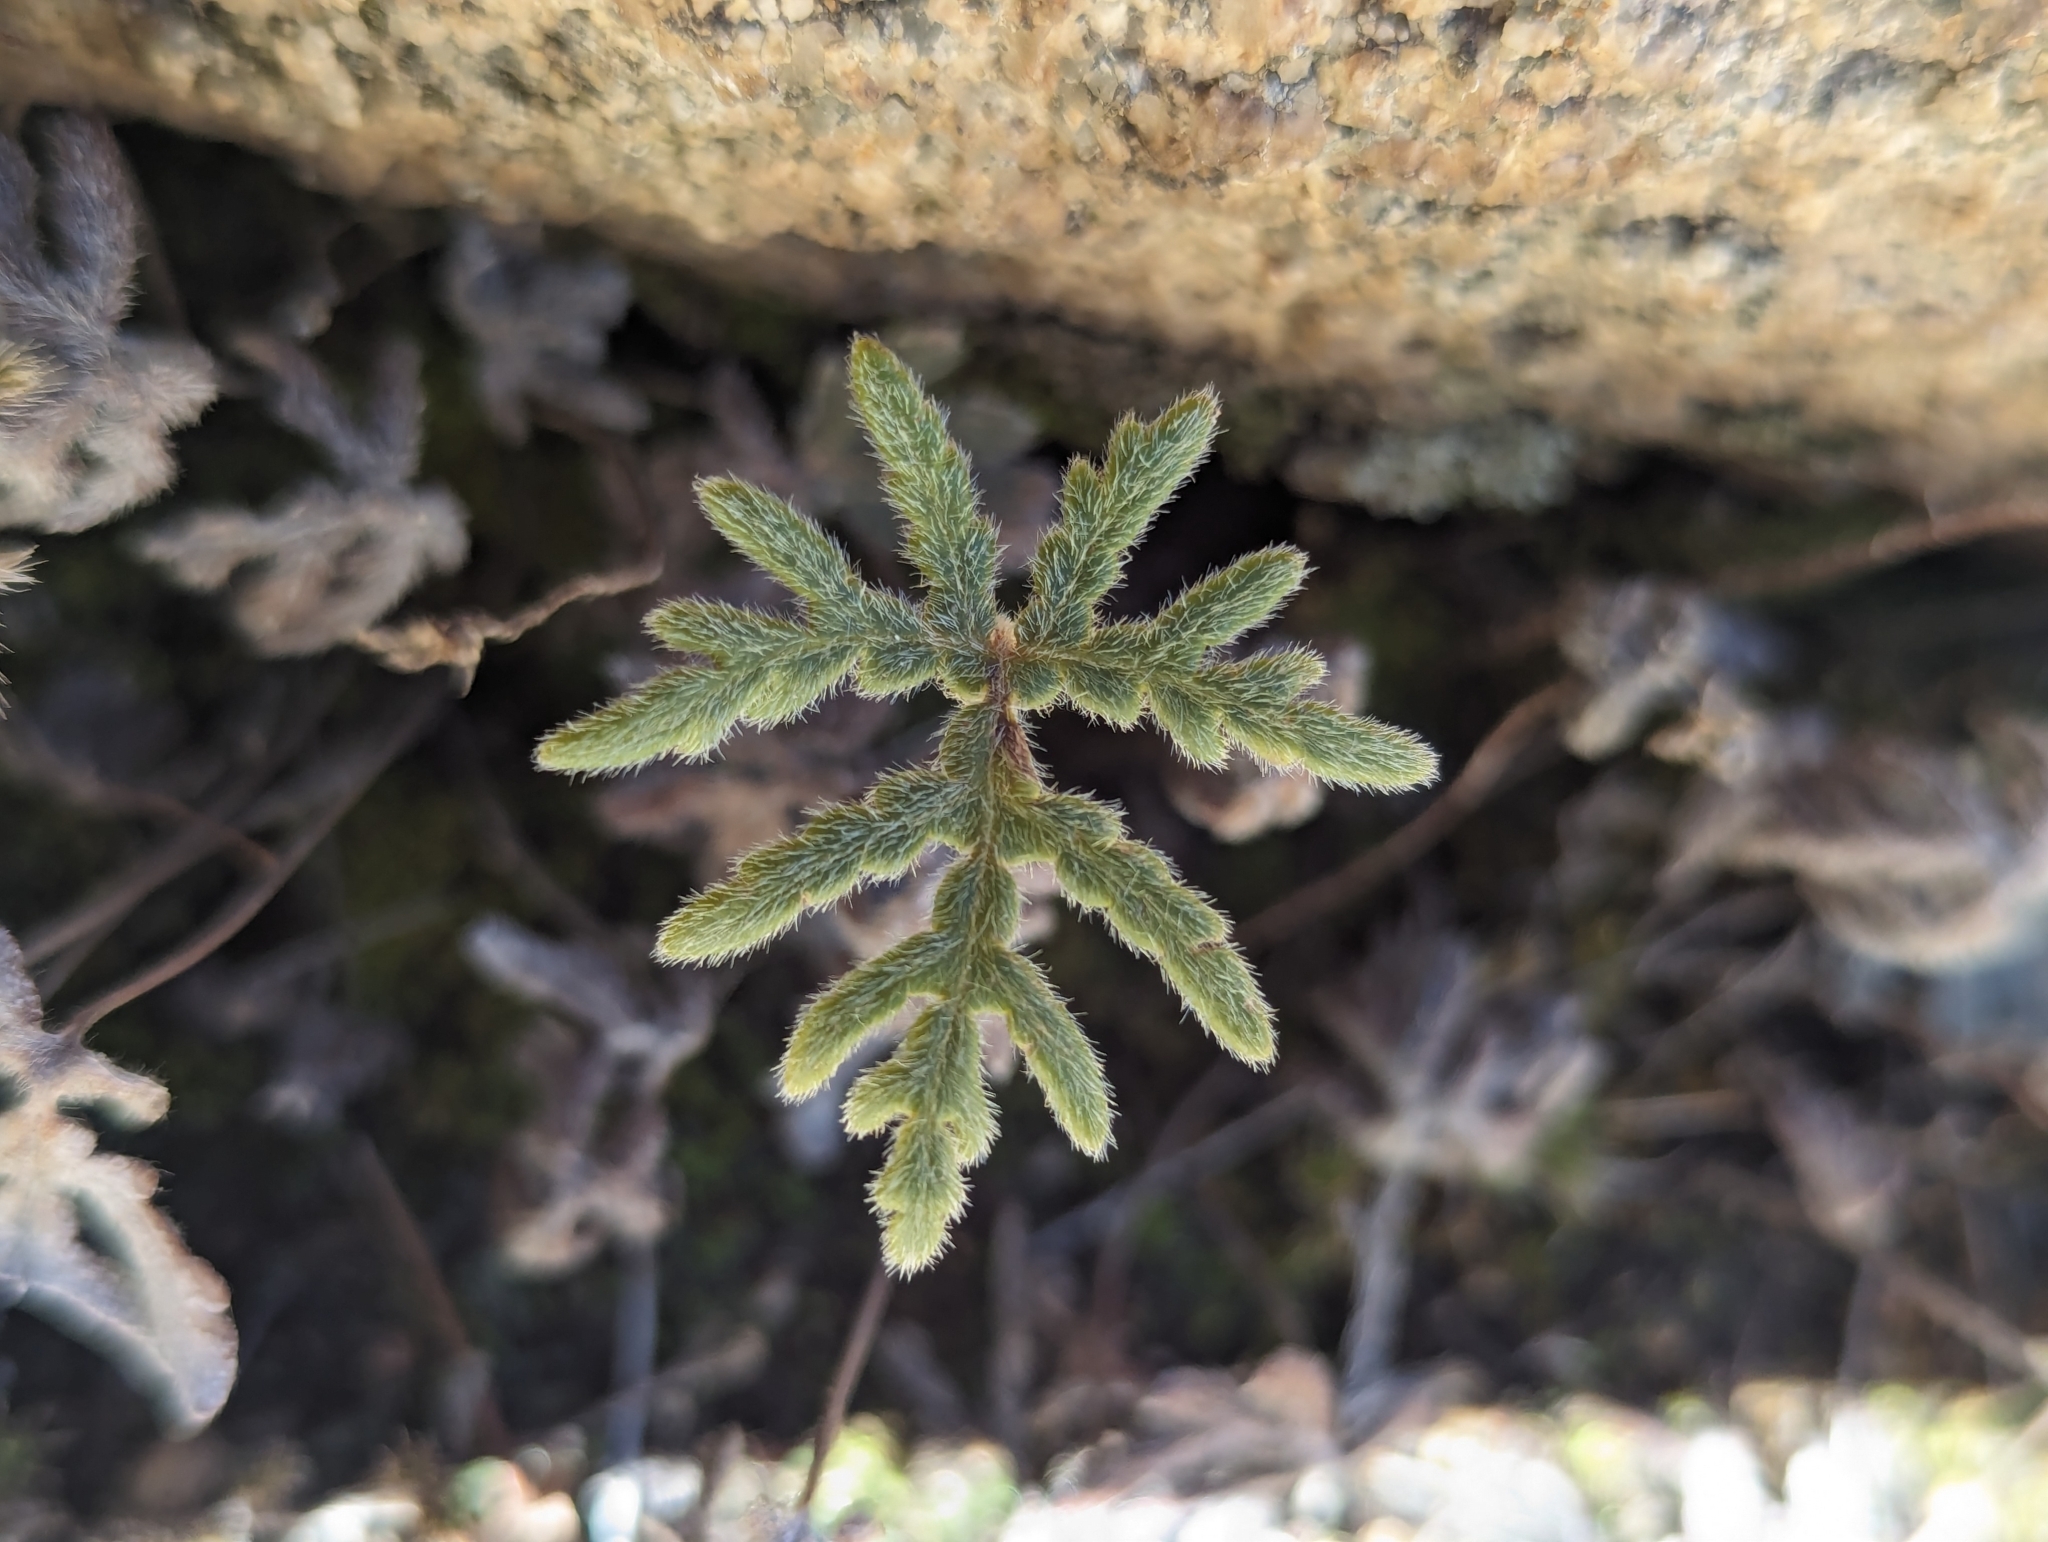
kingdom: Plantae
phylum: Tracheophyta
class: Polypodiopsida
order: Polypodiales
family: Pteridaceae
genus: Bommeria
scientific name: Bommeria hispida
